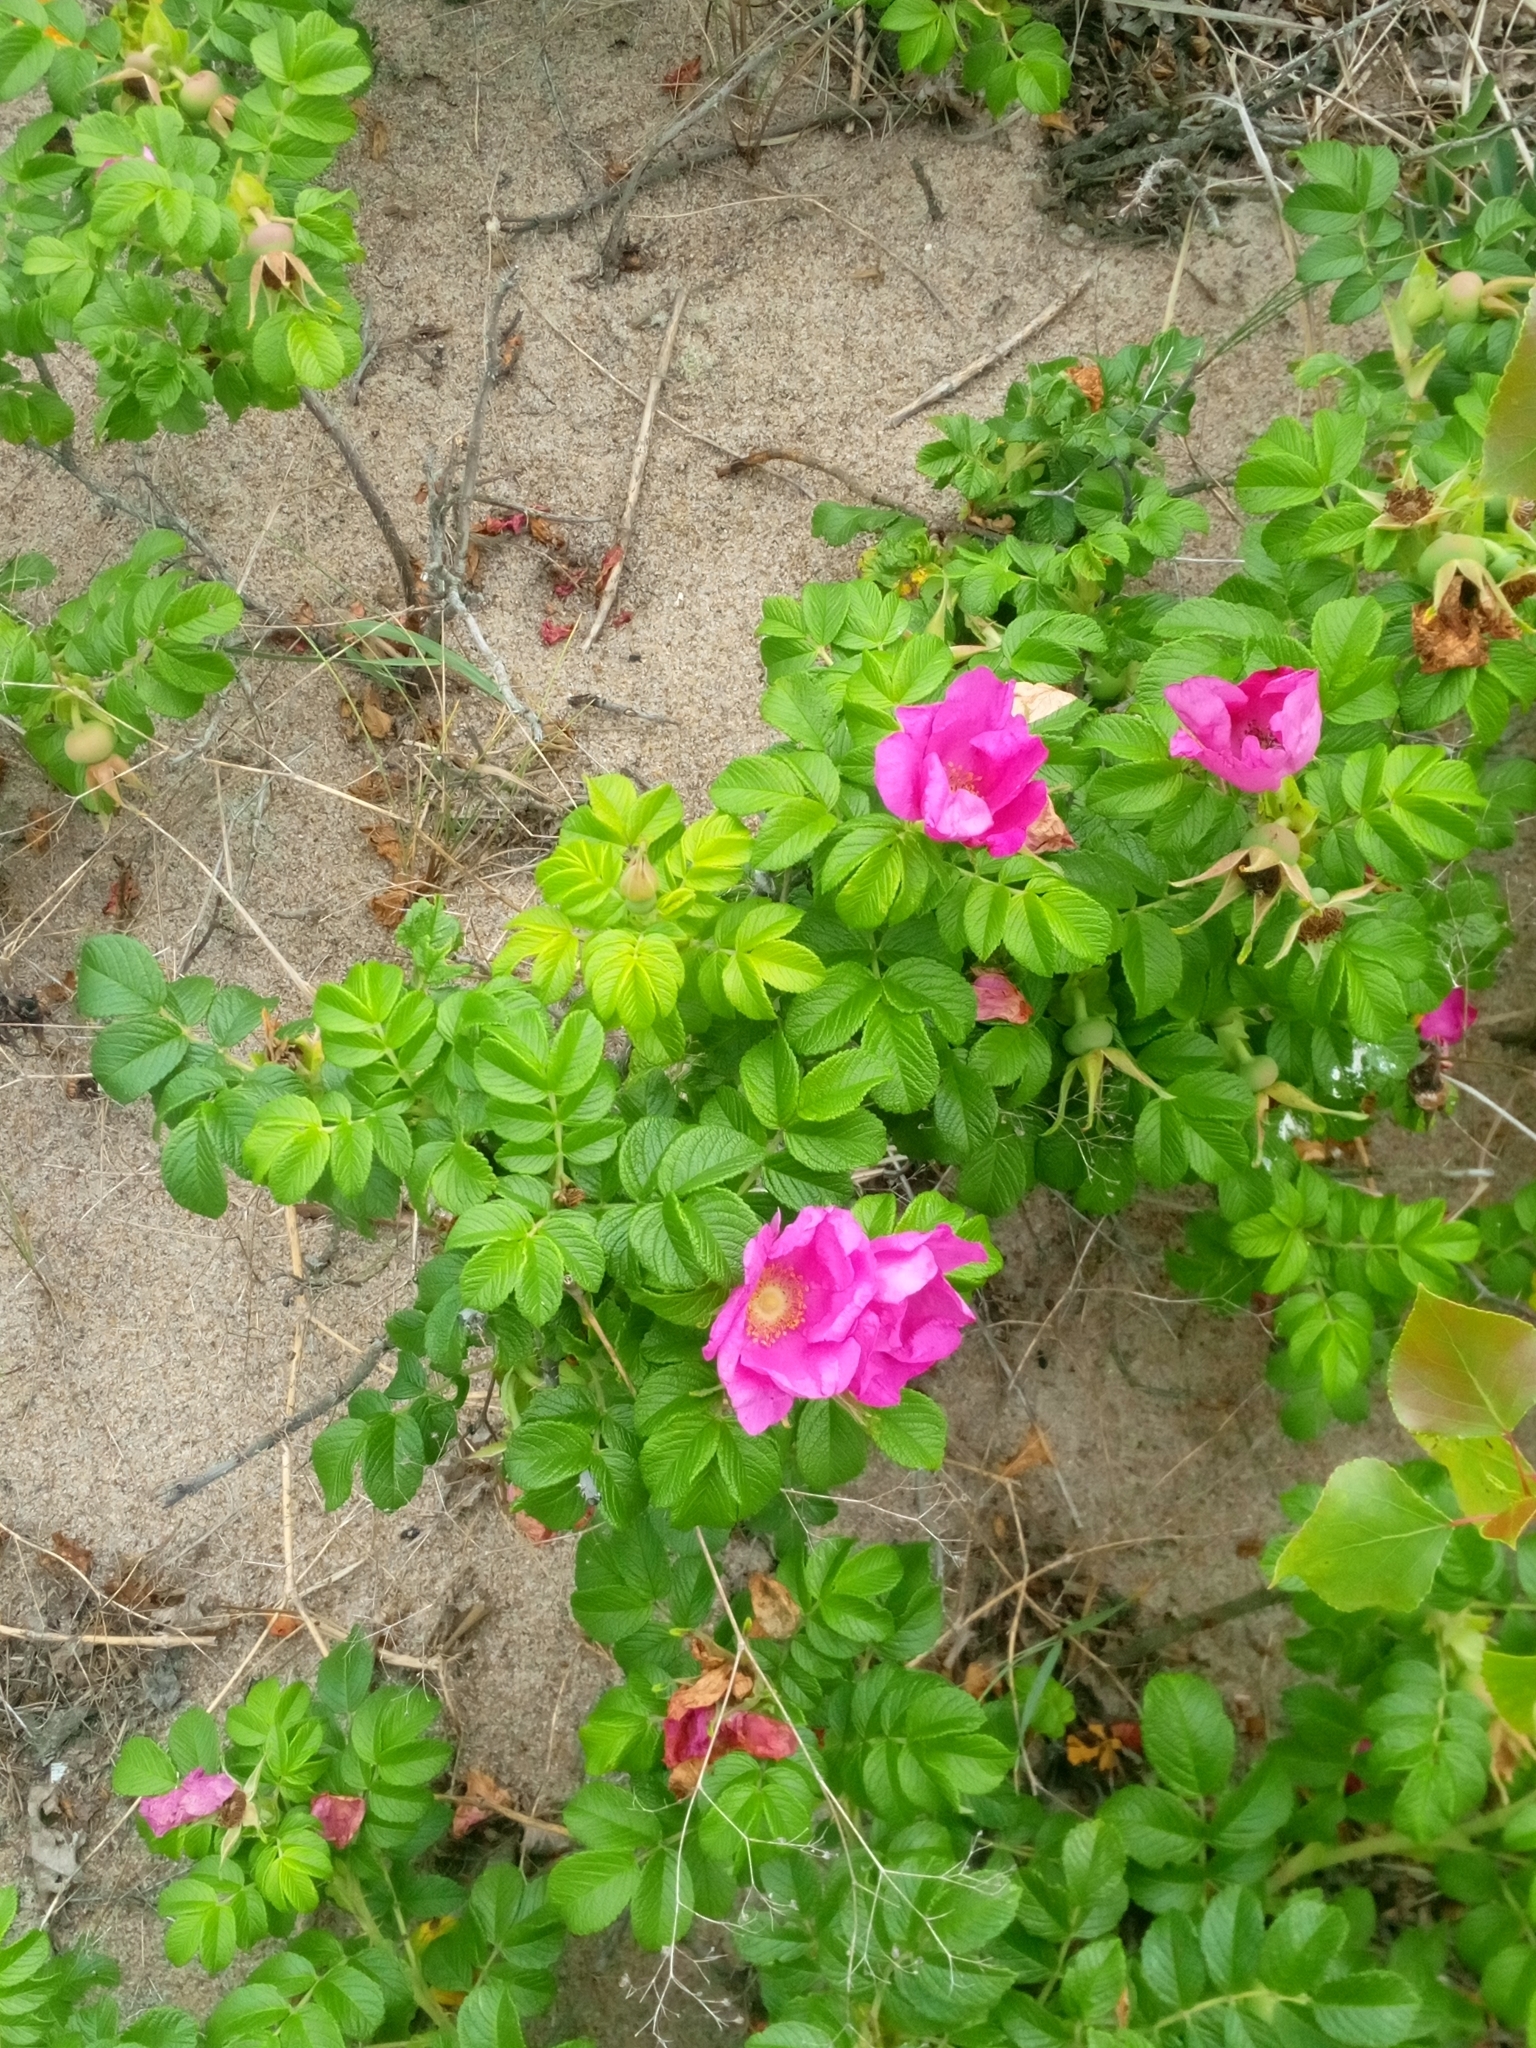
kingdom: Plantae
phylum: Tracheophyta
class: Magnoliopsida
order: Rosales
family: Rosaceae
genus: Rosa
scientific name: Rosa rugosa
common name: Japanese rose
